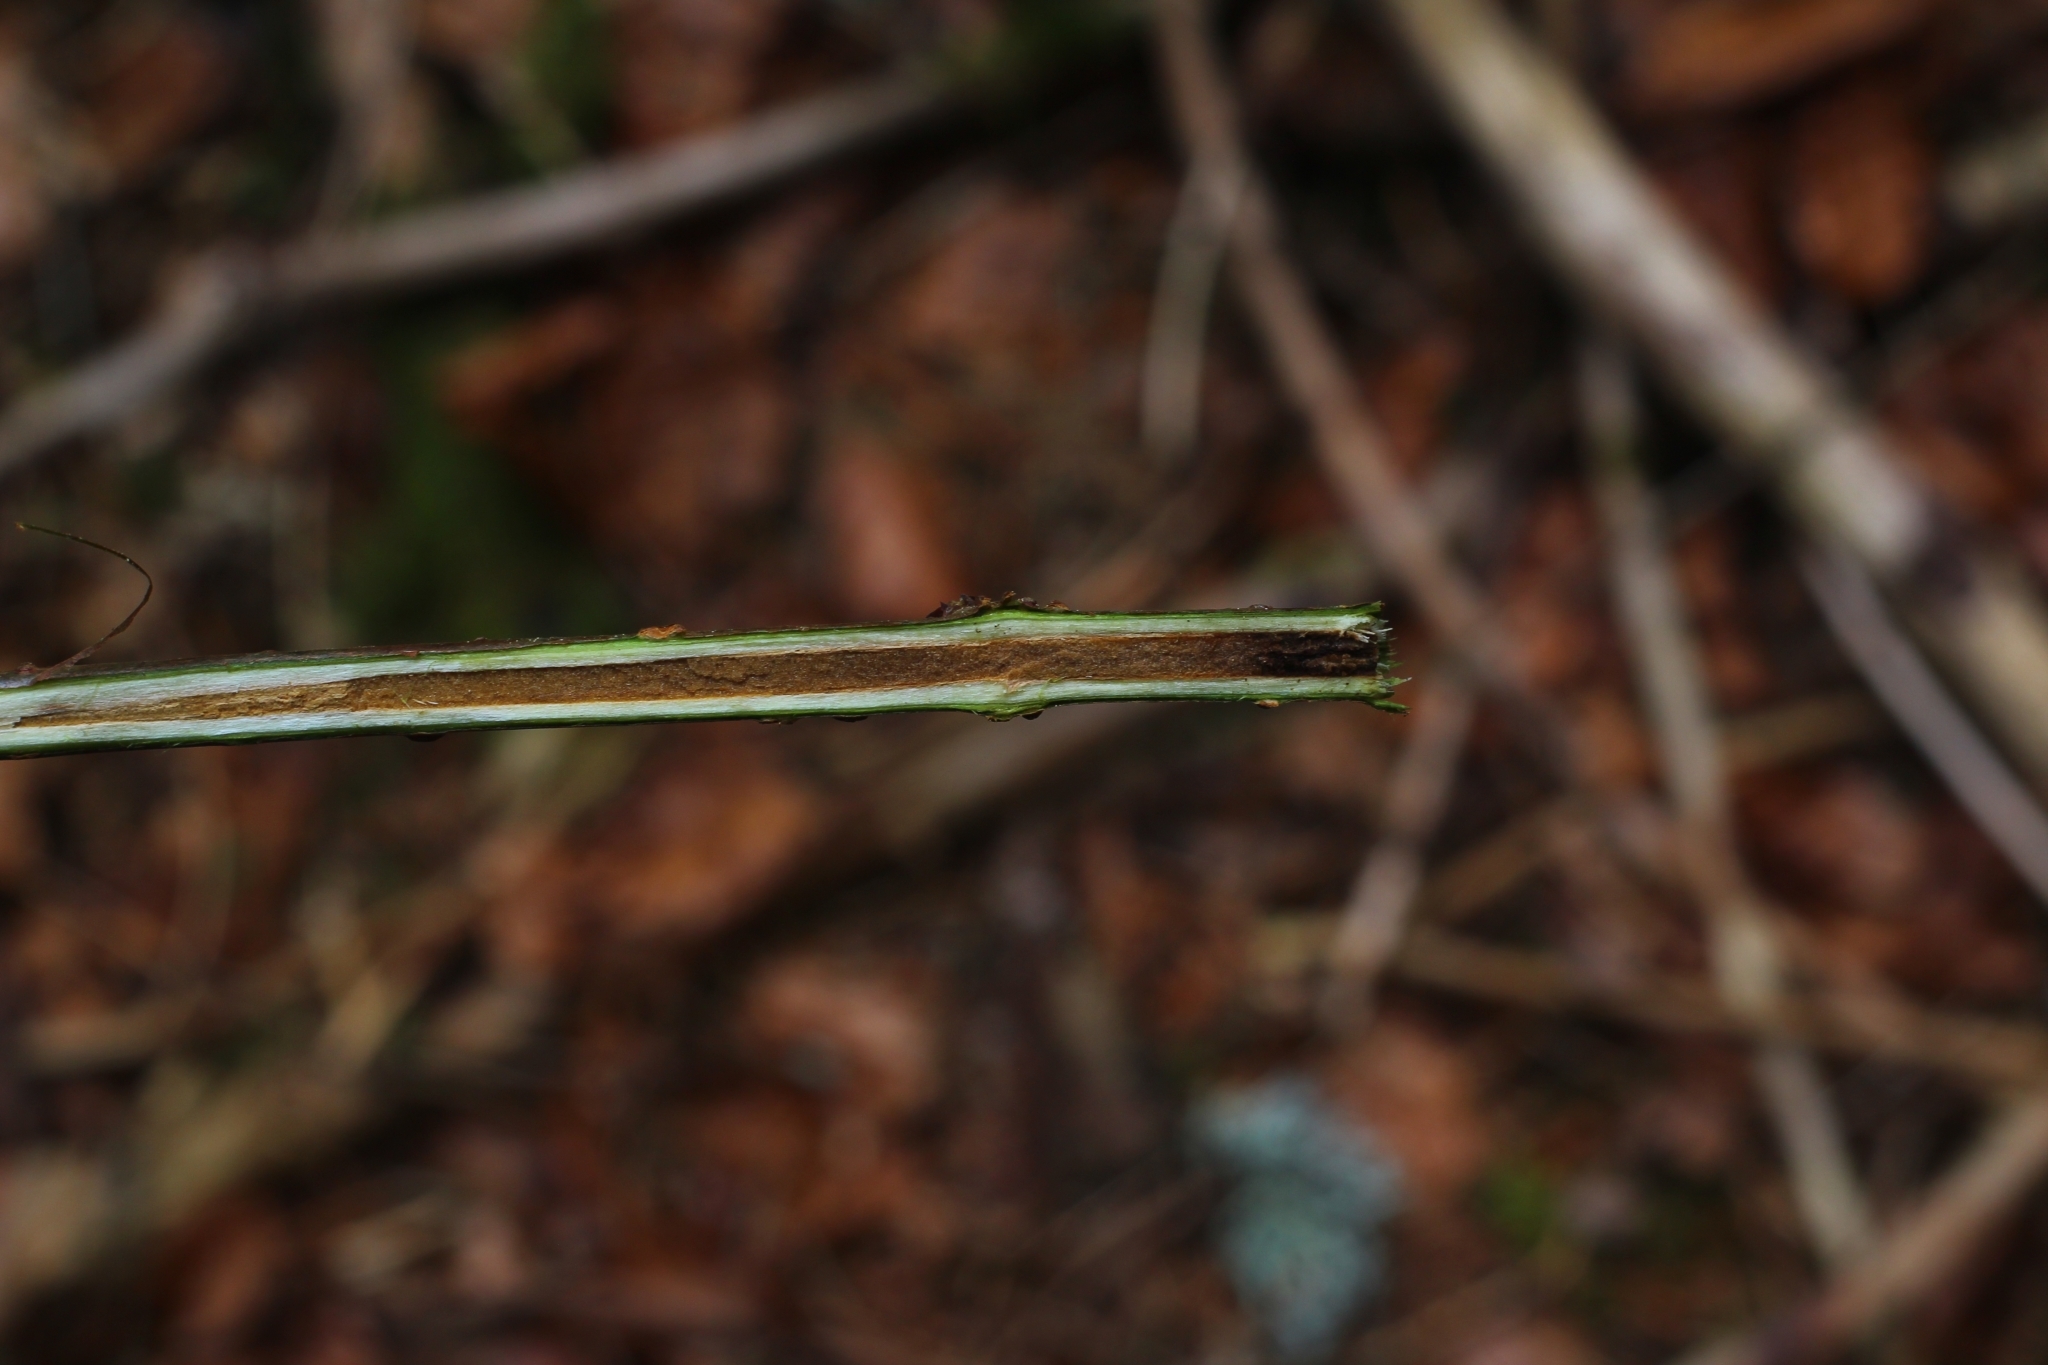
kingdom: Plantae
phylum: Tracheophyta
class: Magnoliopsida
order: Dipsacales
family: Viburnaceae
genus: Sambucus
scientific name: Sambucus racemosa
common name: Red-berried elder
